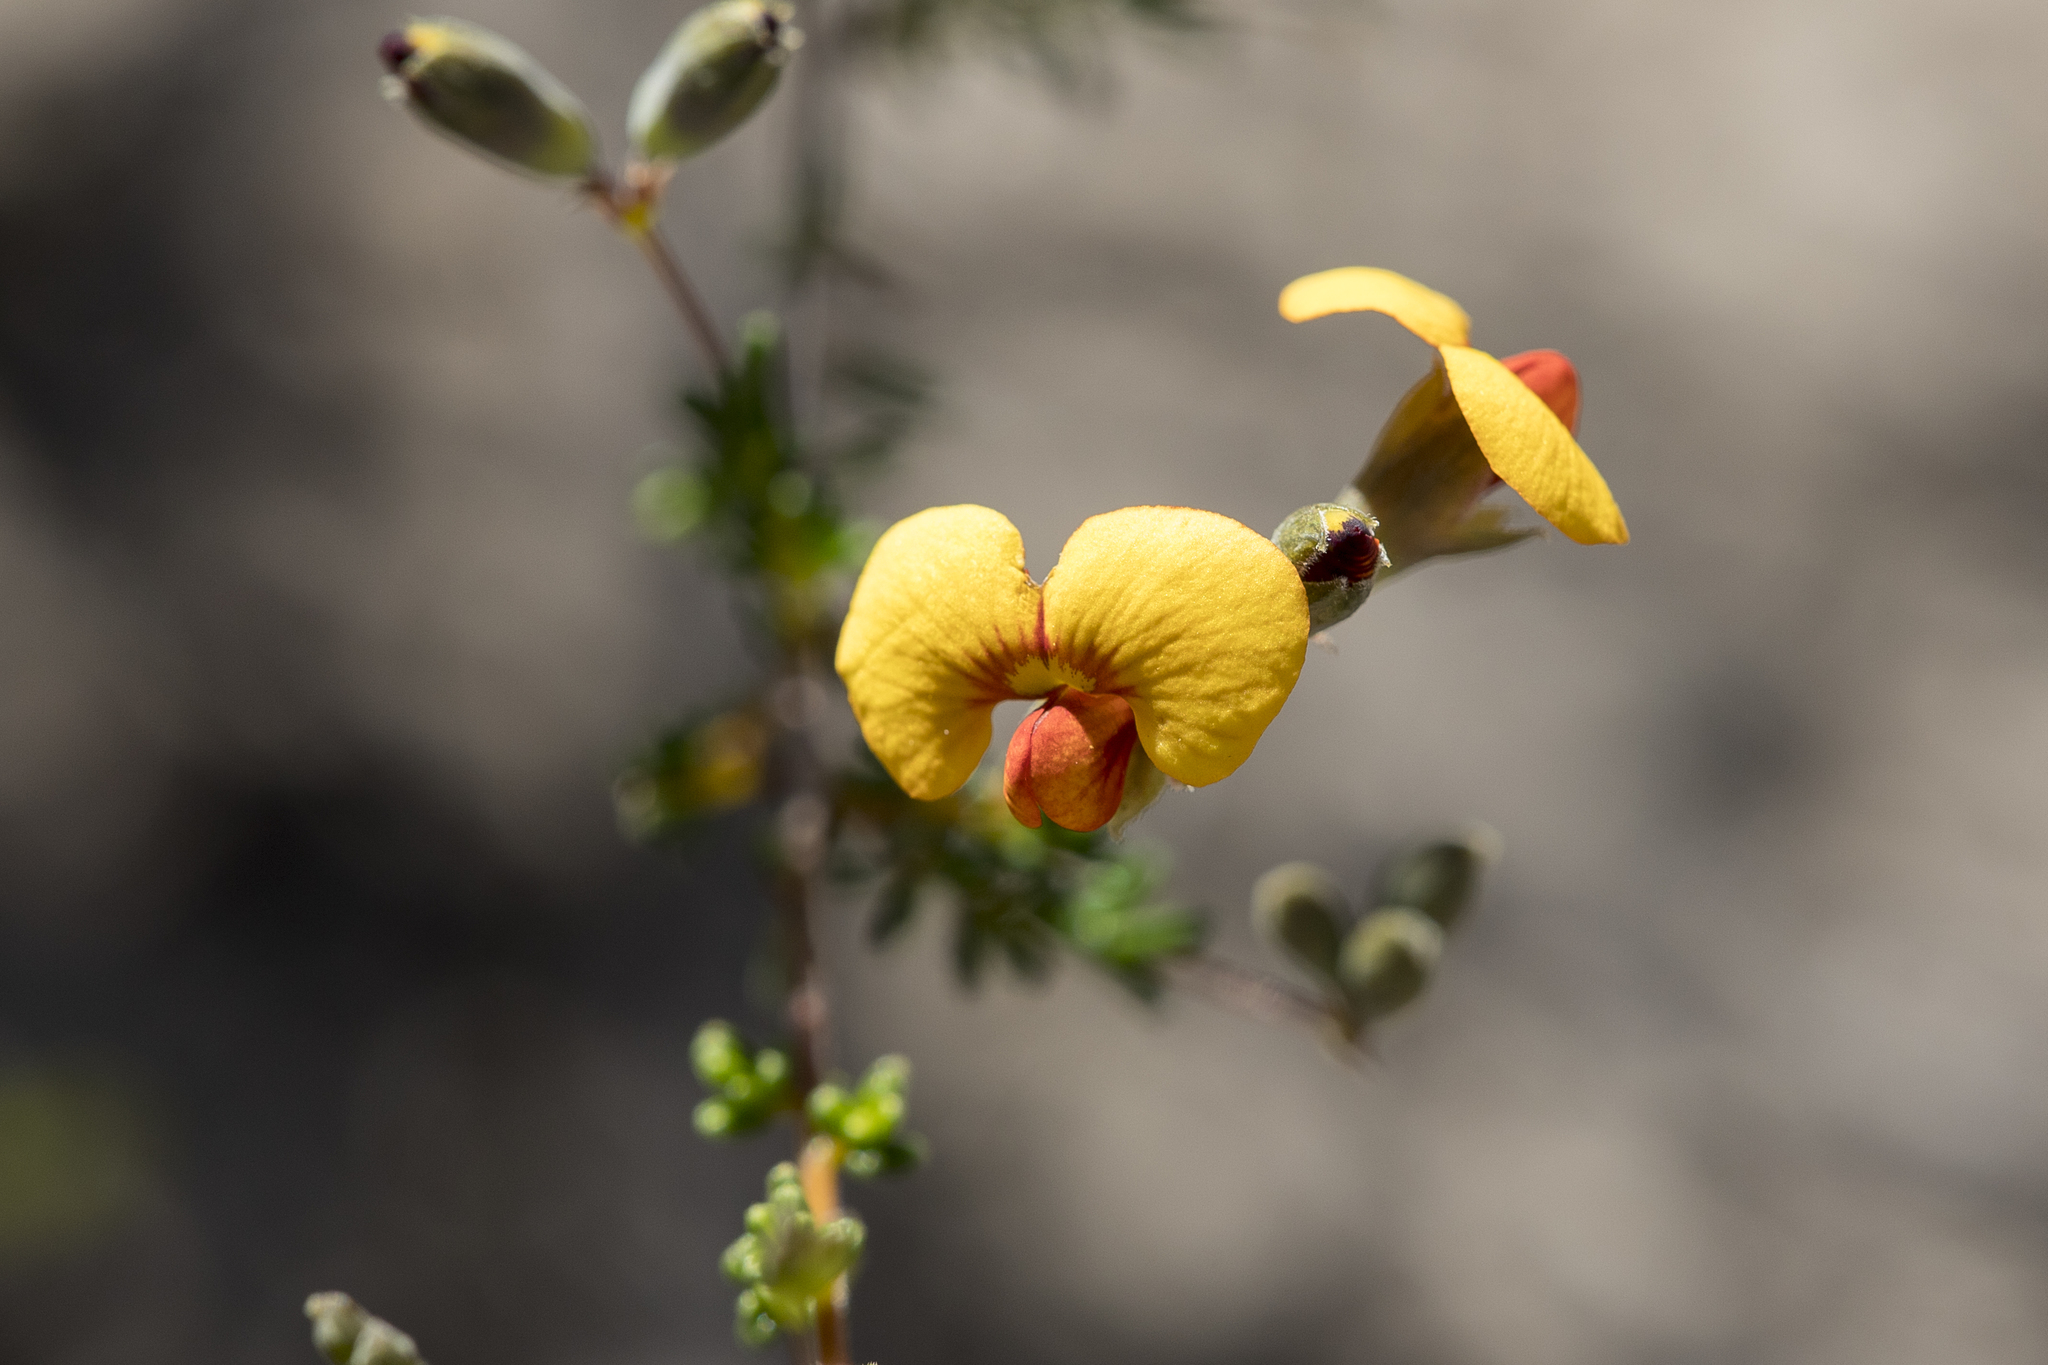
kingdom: Plantae
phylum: Tracheophyta
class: Magnoliopsida
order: Fabales
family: Fabaceae
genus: Dillwynia
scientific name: Dillwynia hispida
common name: Red parrot-pea
